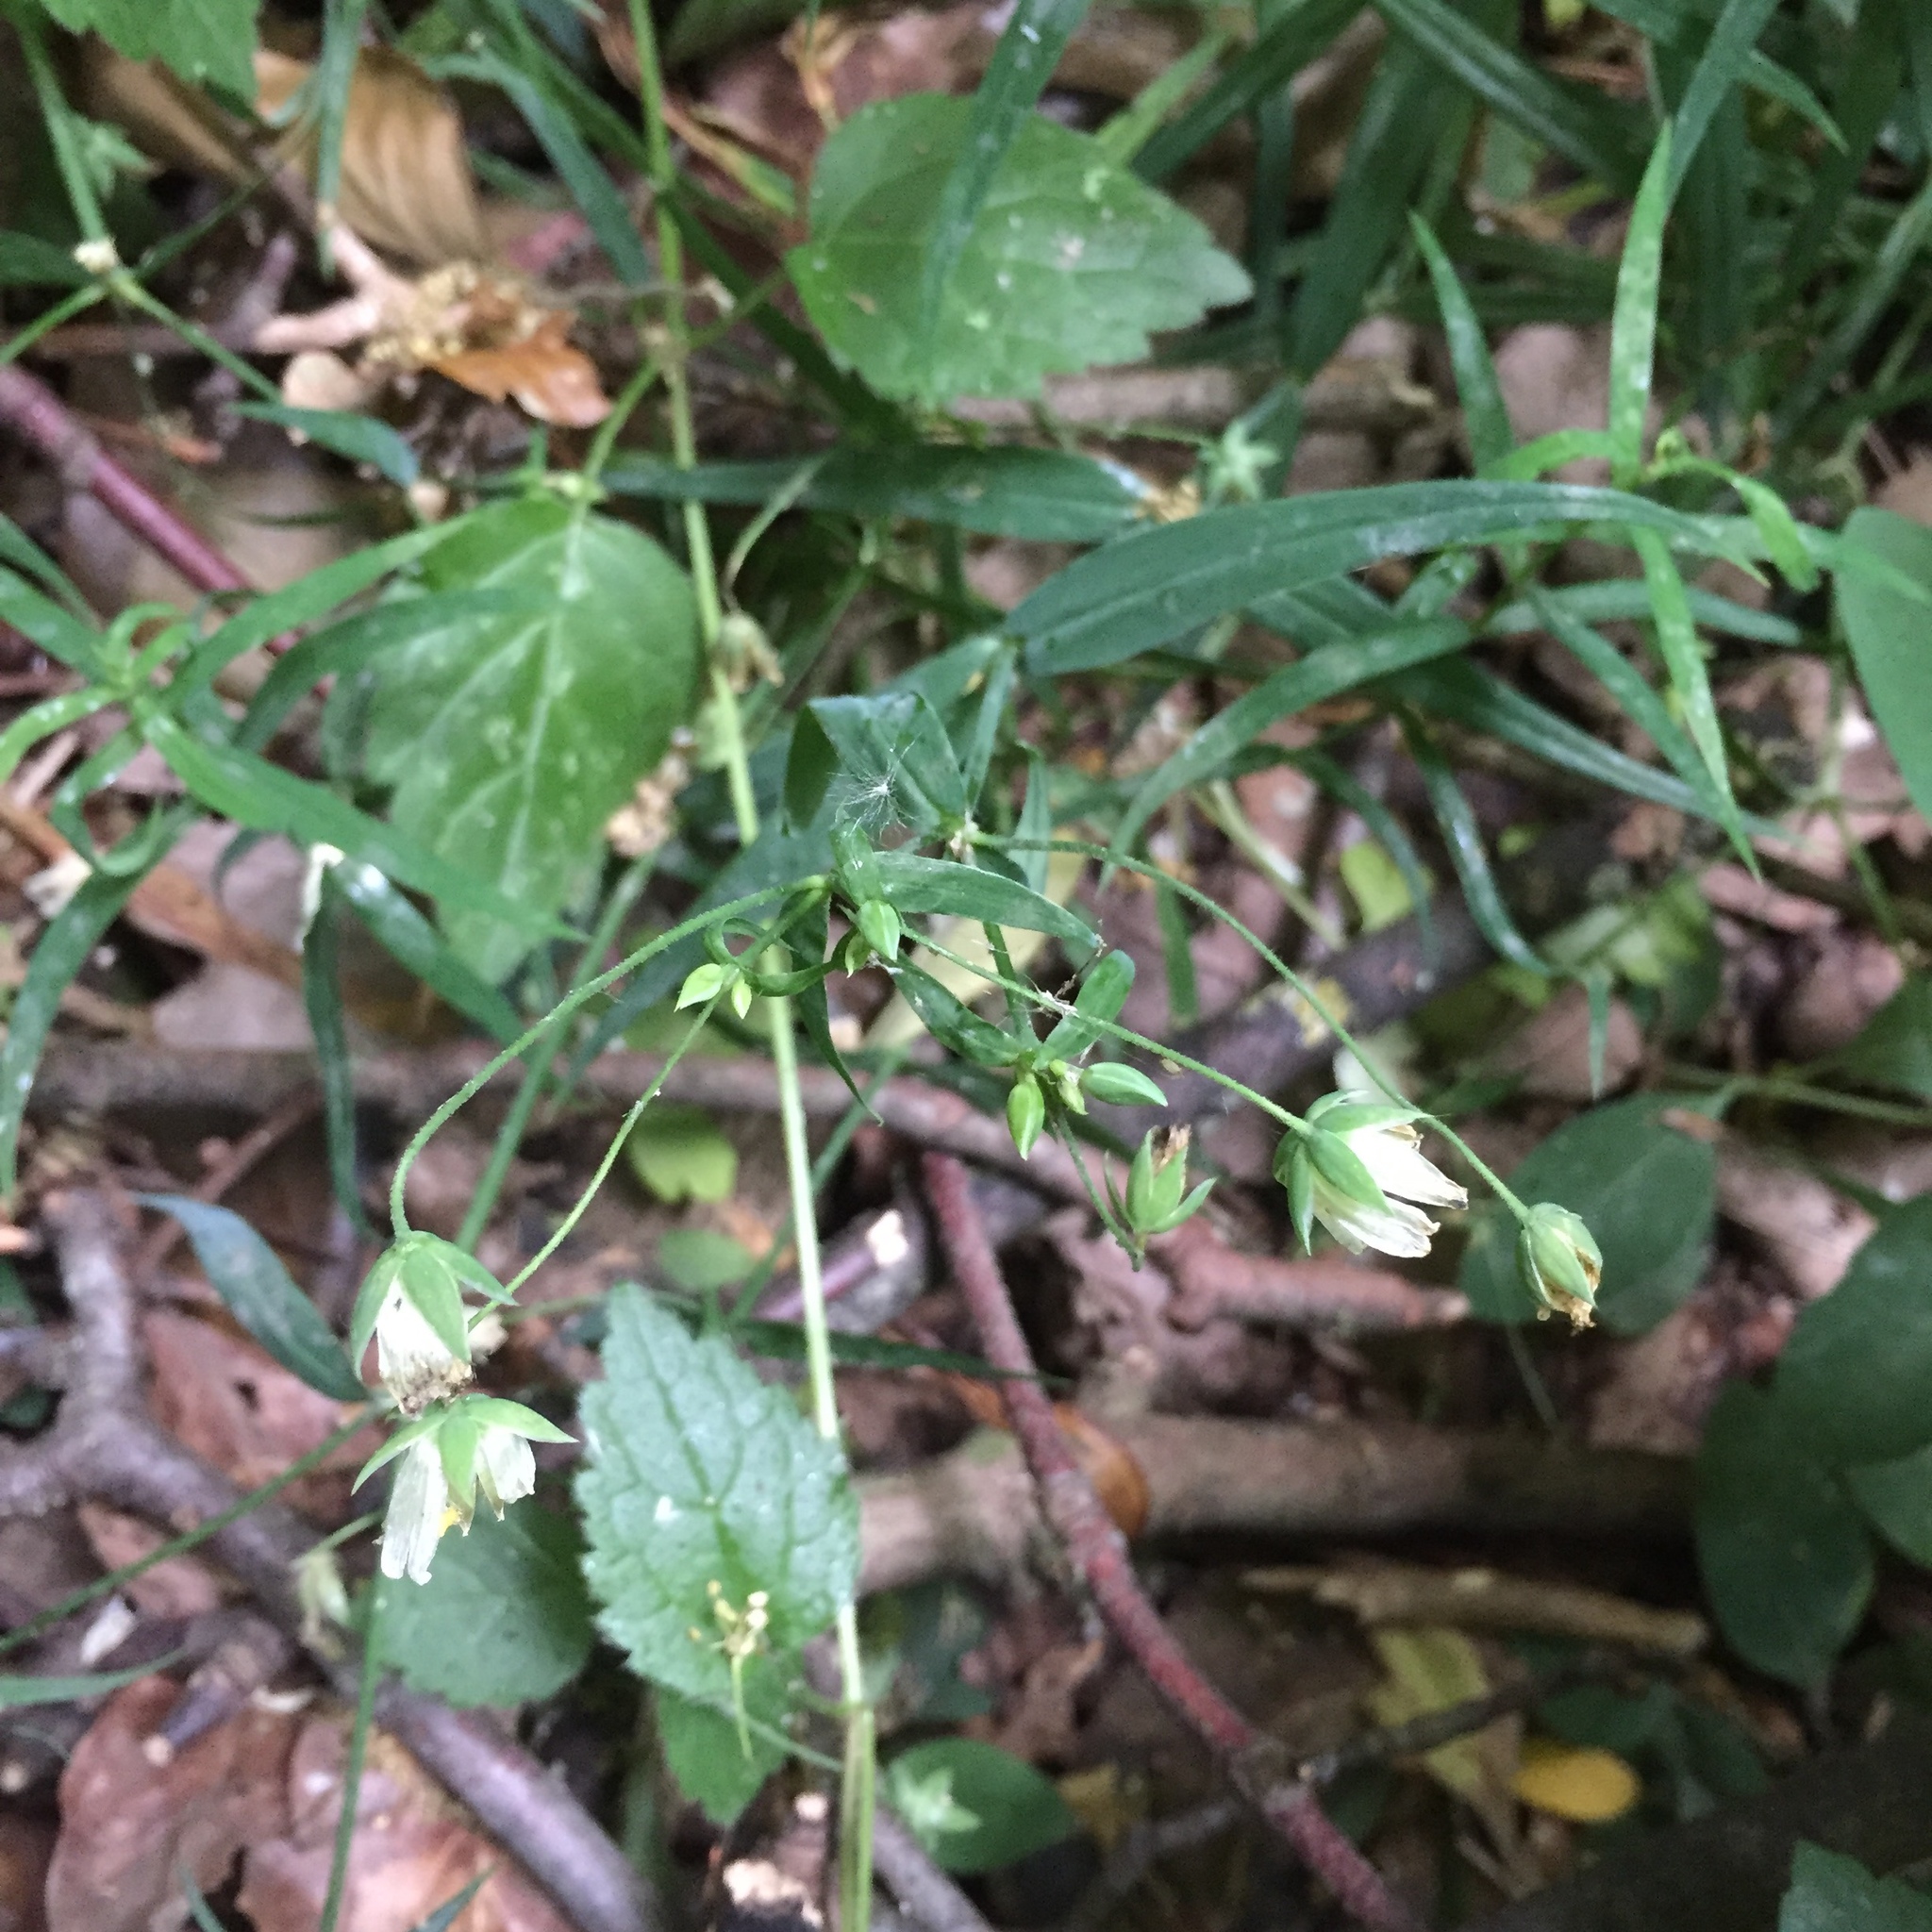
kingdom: Plantae
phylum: Tracheophyta
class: Magnoliopsida
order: Caryophyllales
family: Caryophyllaceae
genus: Rabelera
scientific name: Rabelera holostea
